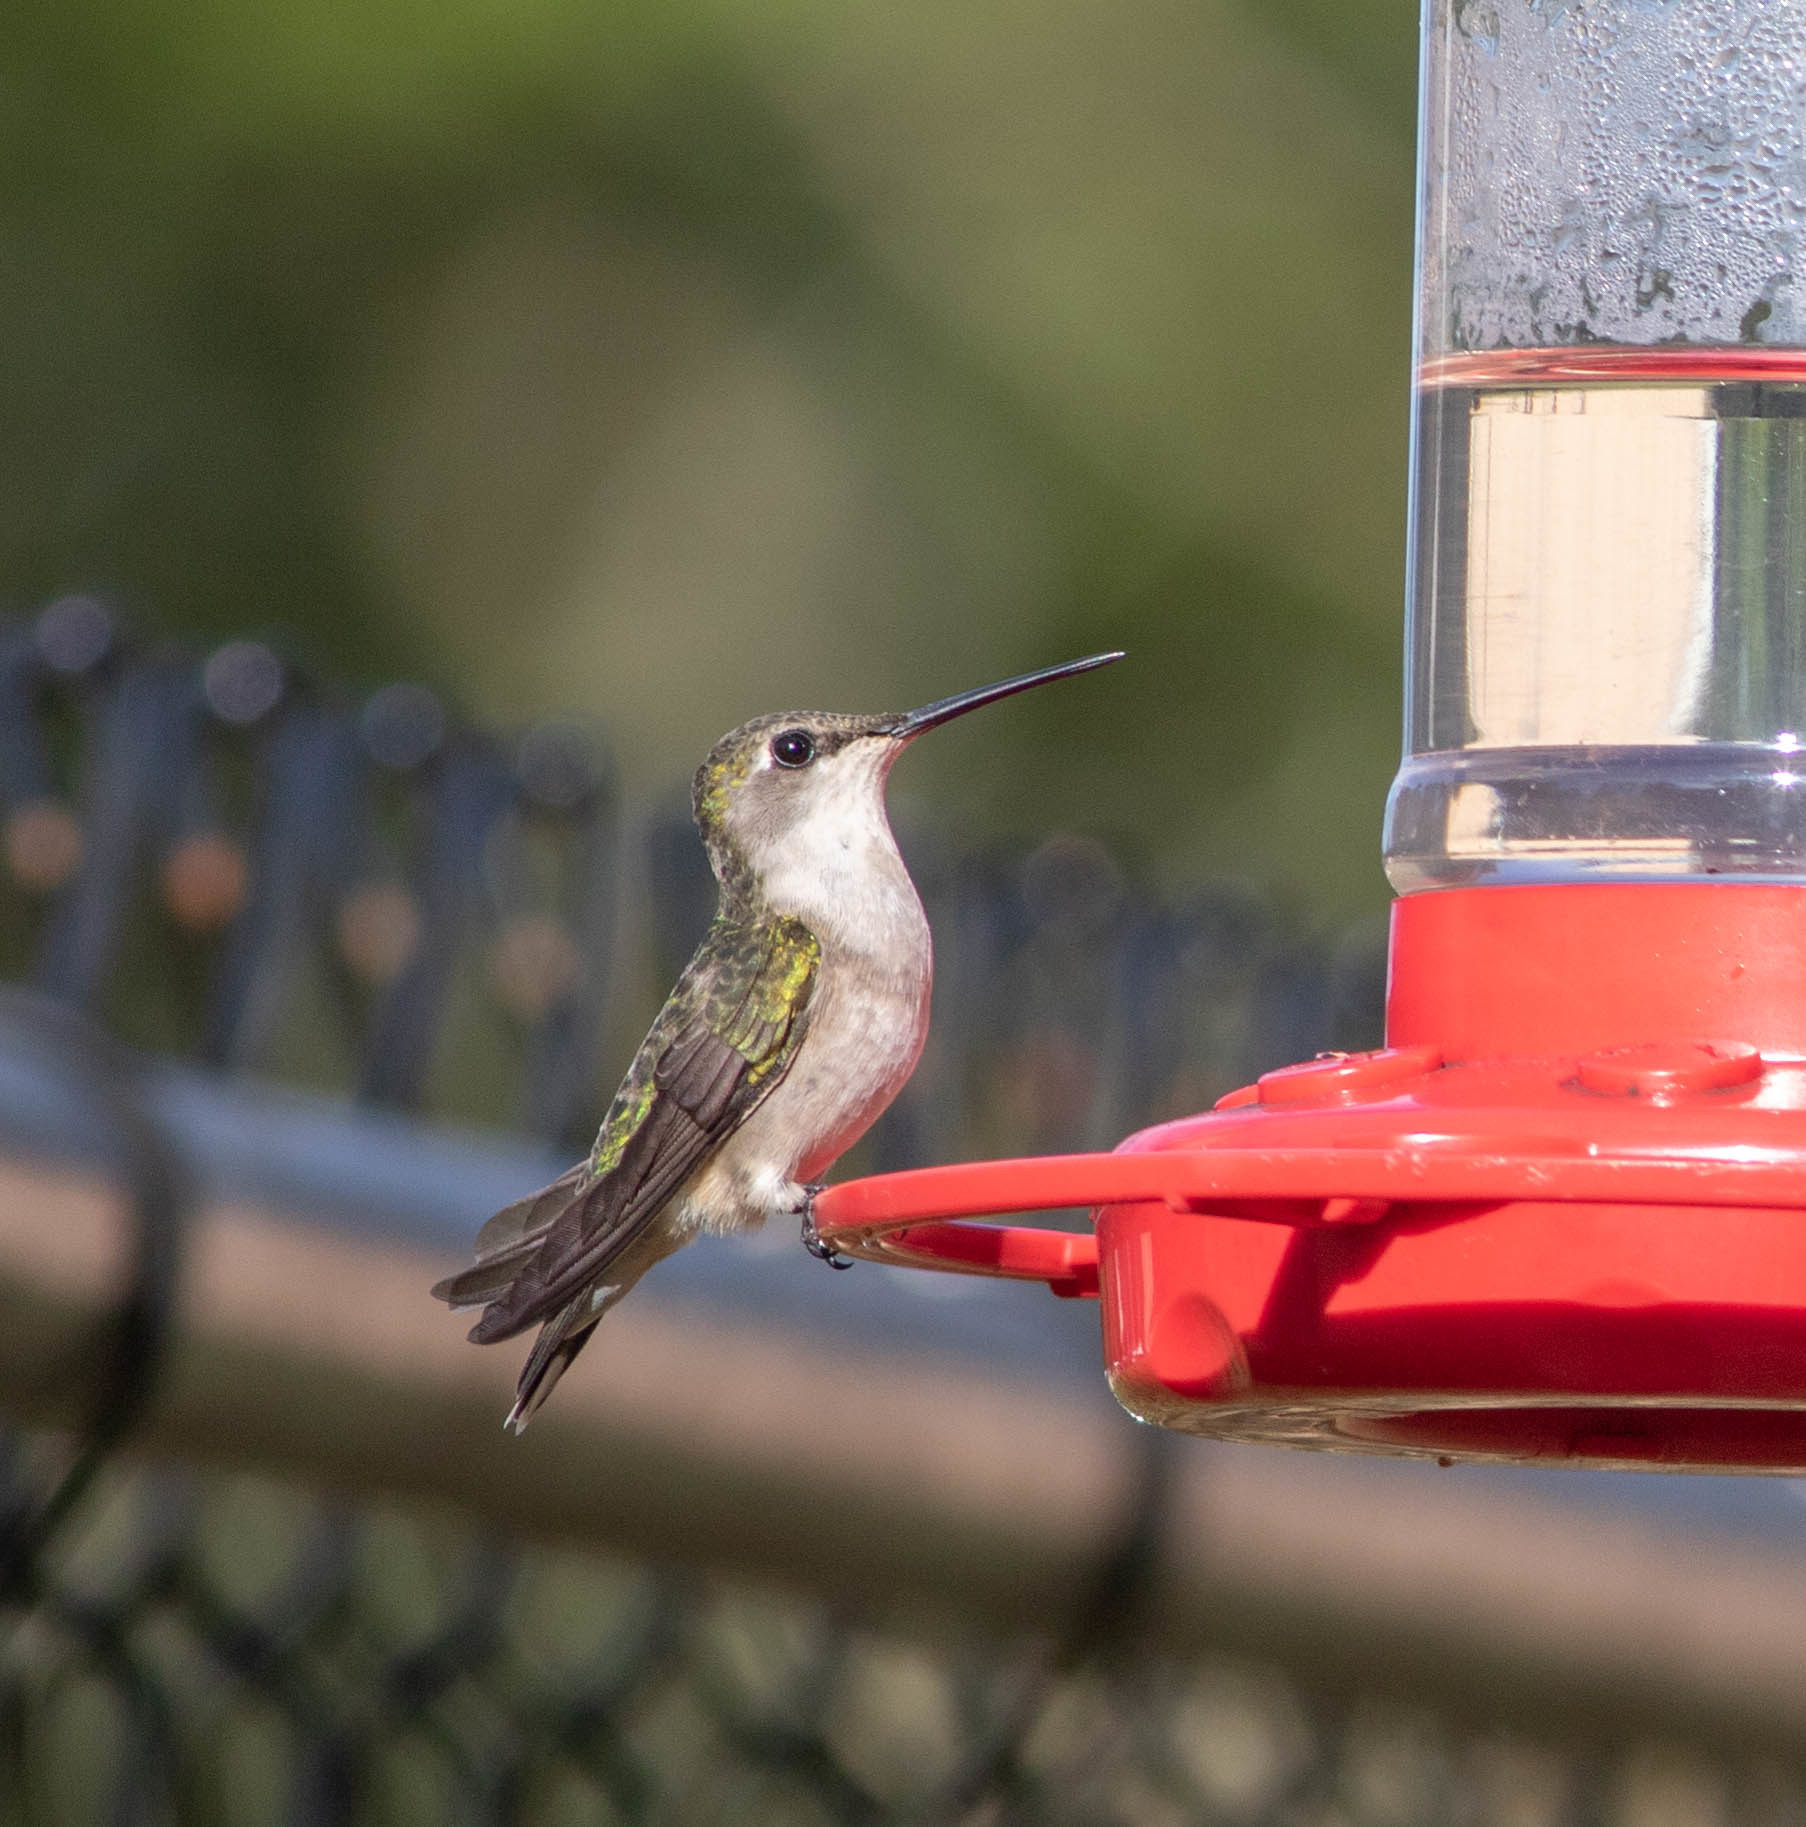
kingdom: Animalia
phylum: Chordata
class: Aves
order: Apodiformes
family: Trochilidae
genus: Archilochus
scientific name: Archilochus colubris
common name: Ruby-throated hummingbird
